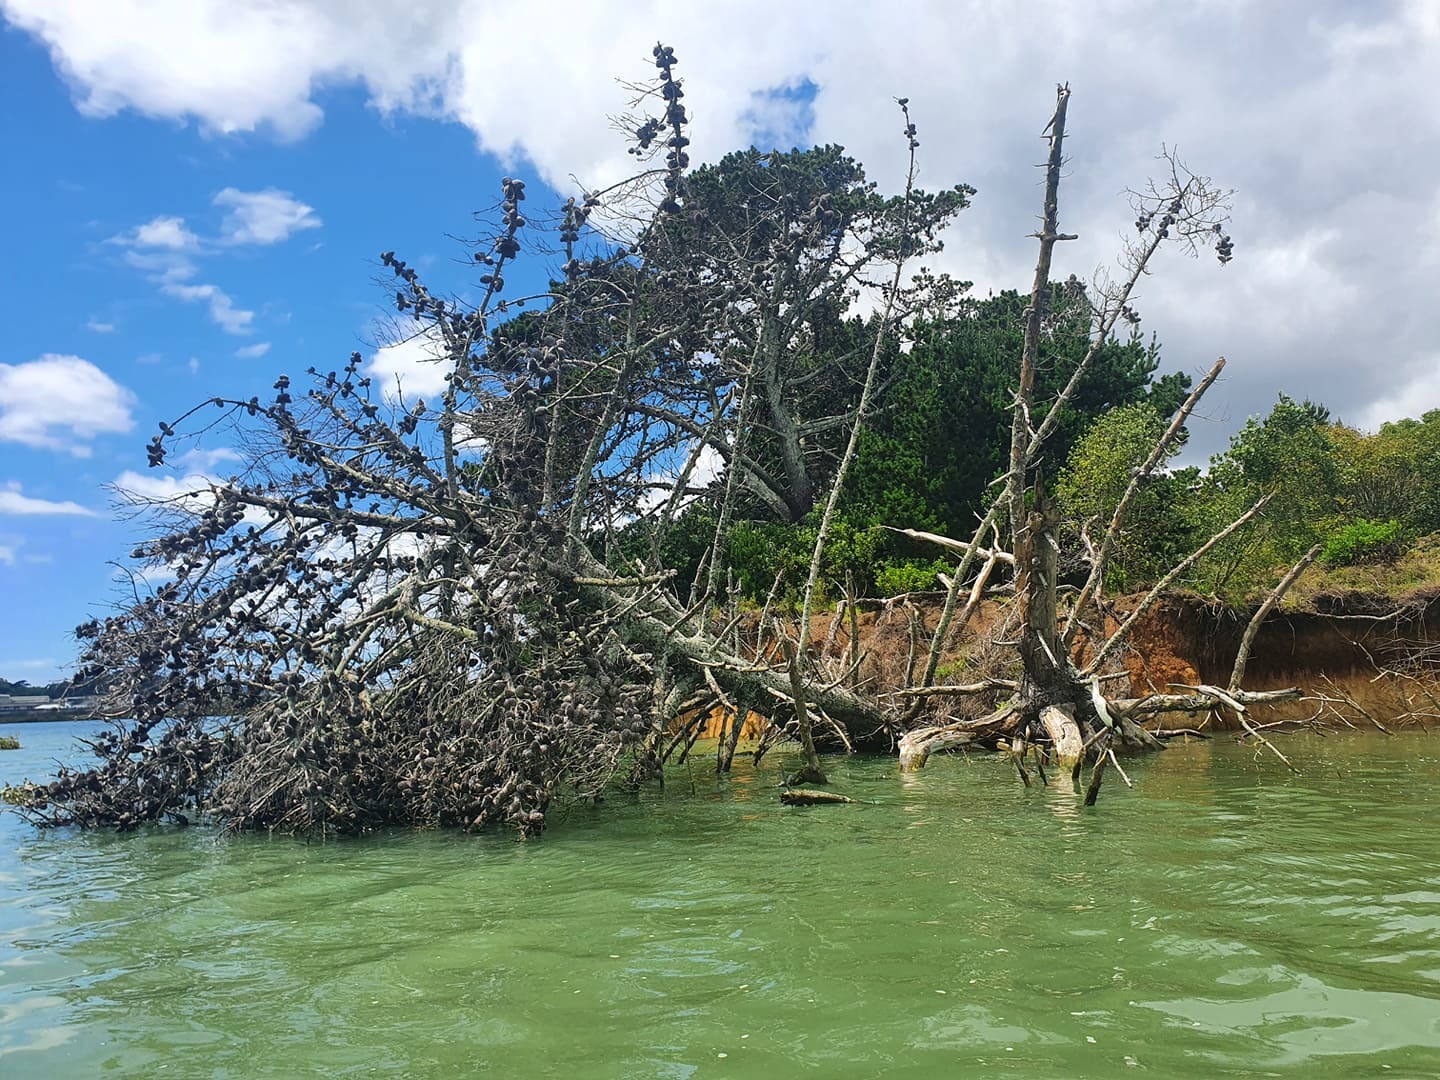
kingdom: Plantae
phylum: Tracheophyta
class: Pinopsida
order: Pinales
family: Pinaceae
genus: Pinus
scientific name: Pinus radiata
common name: Monterey pine
